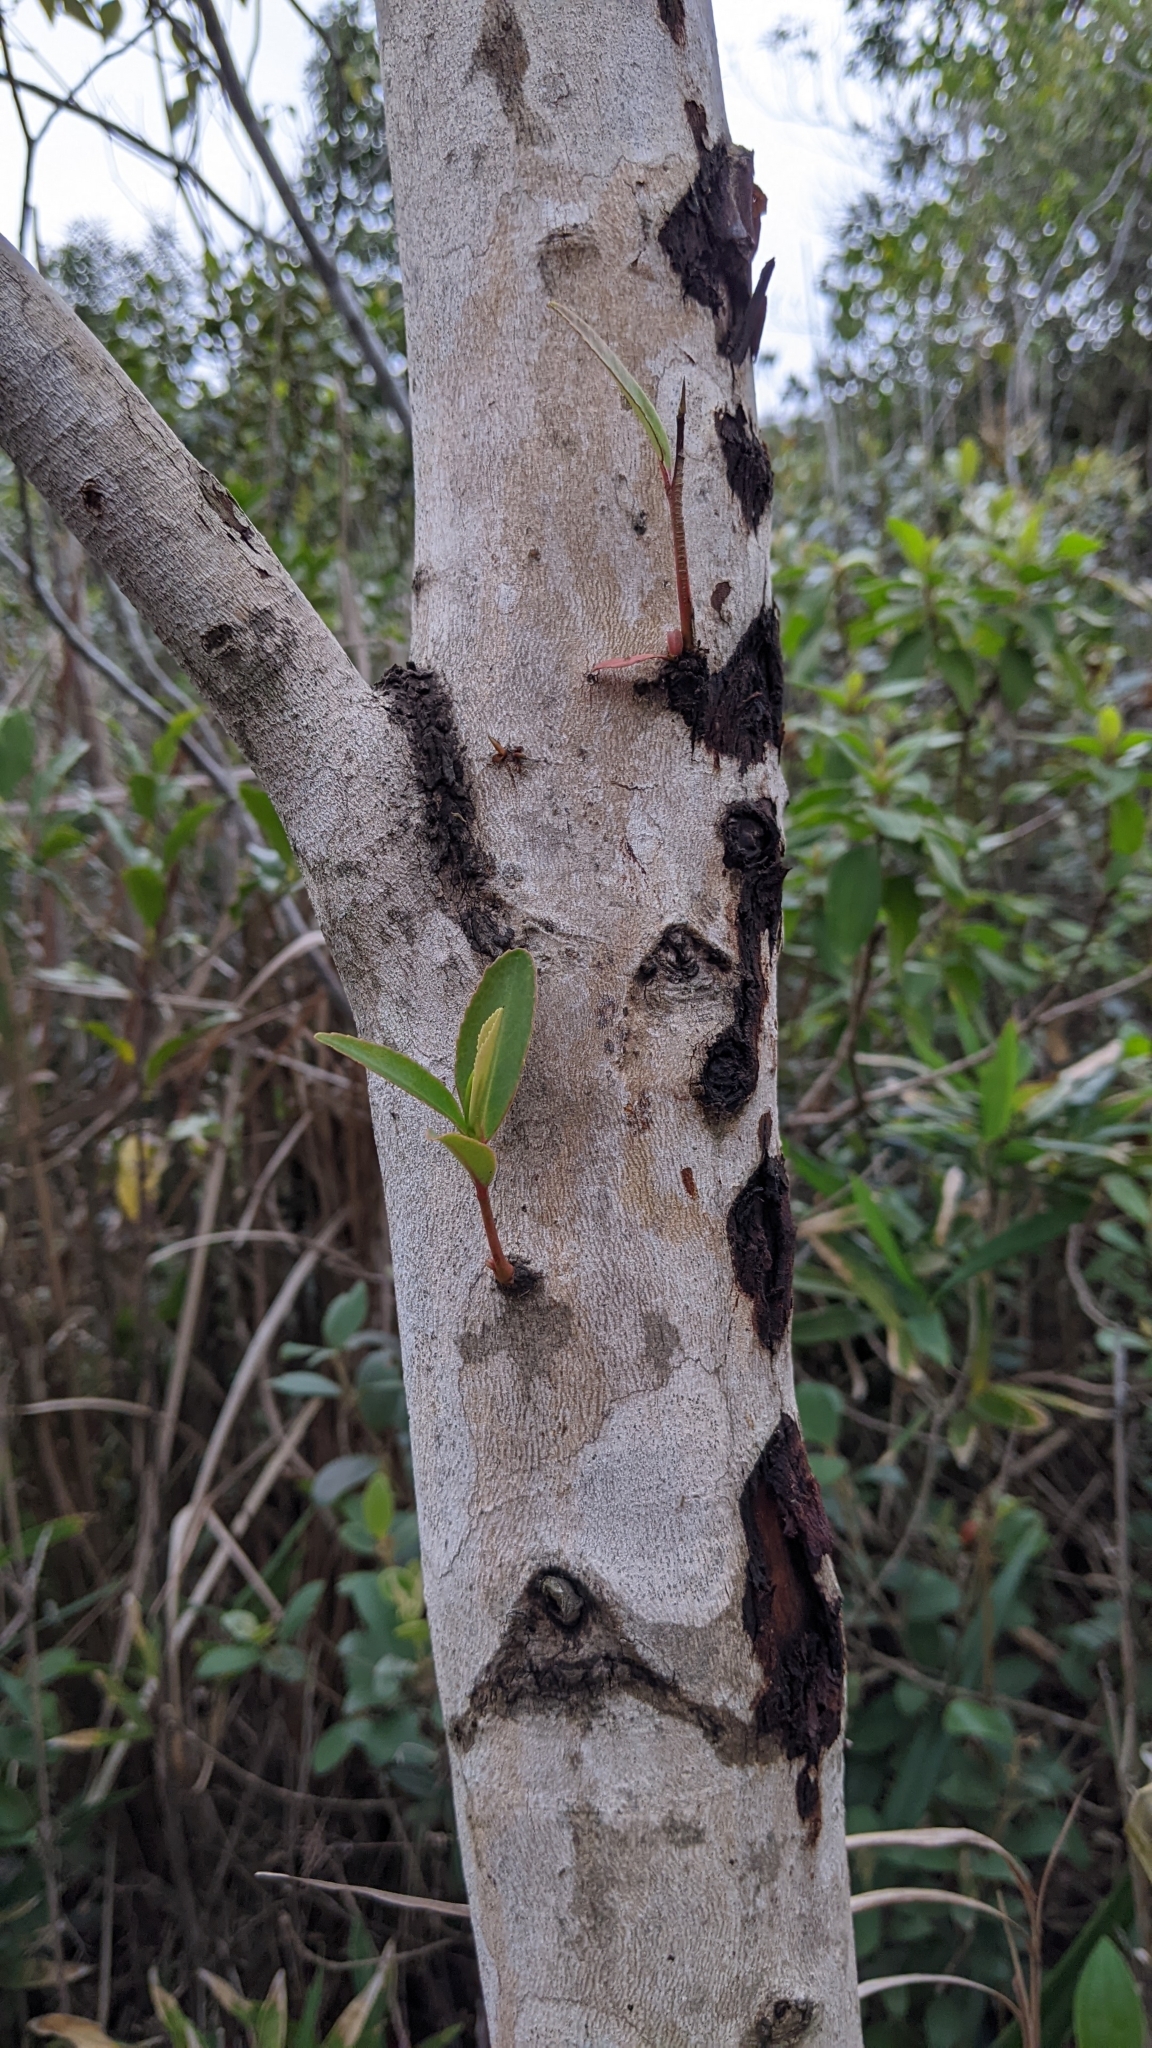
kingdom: Plantae
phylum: Tracheophyta
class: Magnoliopsida
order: Ericales
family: Theaceae
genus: Polyspora
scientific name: Polyspora axillaris
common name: Fried egg tree
